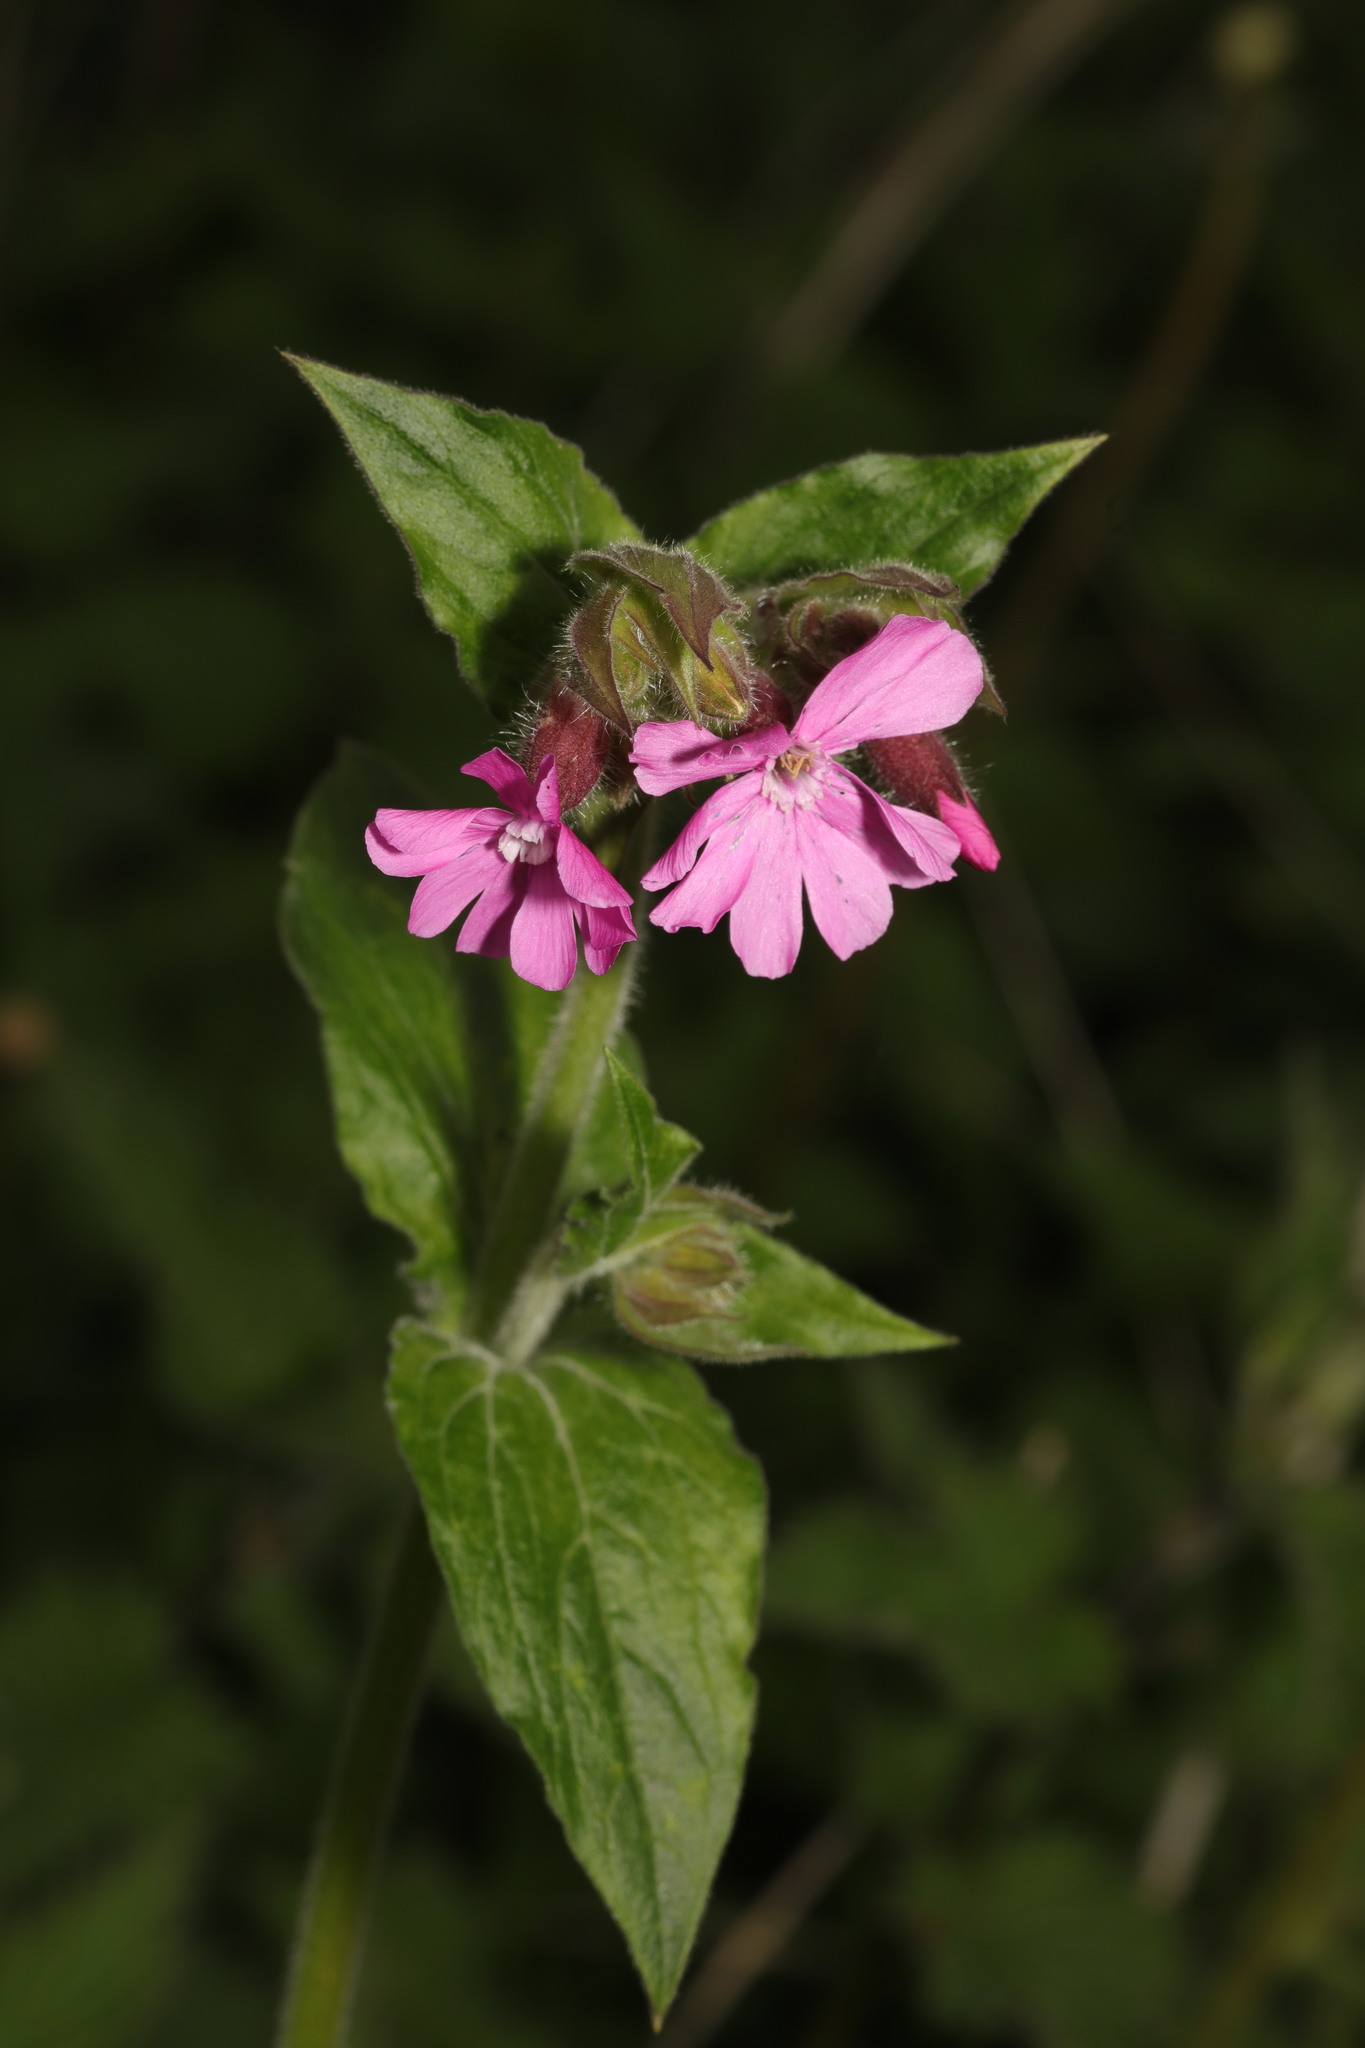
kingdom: Plantae
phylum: Tracheophyta
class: Magnoliopsida
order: Caryophyllales
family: Caryophyllaceae
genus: Silene
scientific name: Silene dioica
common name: Red campion
